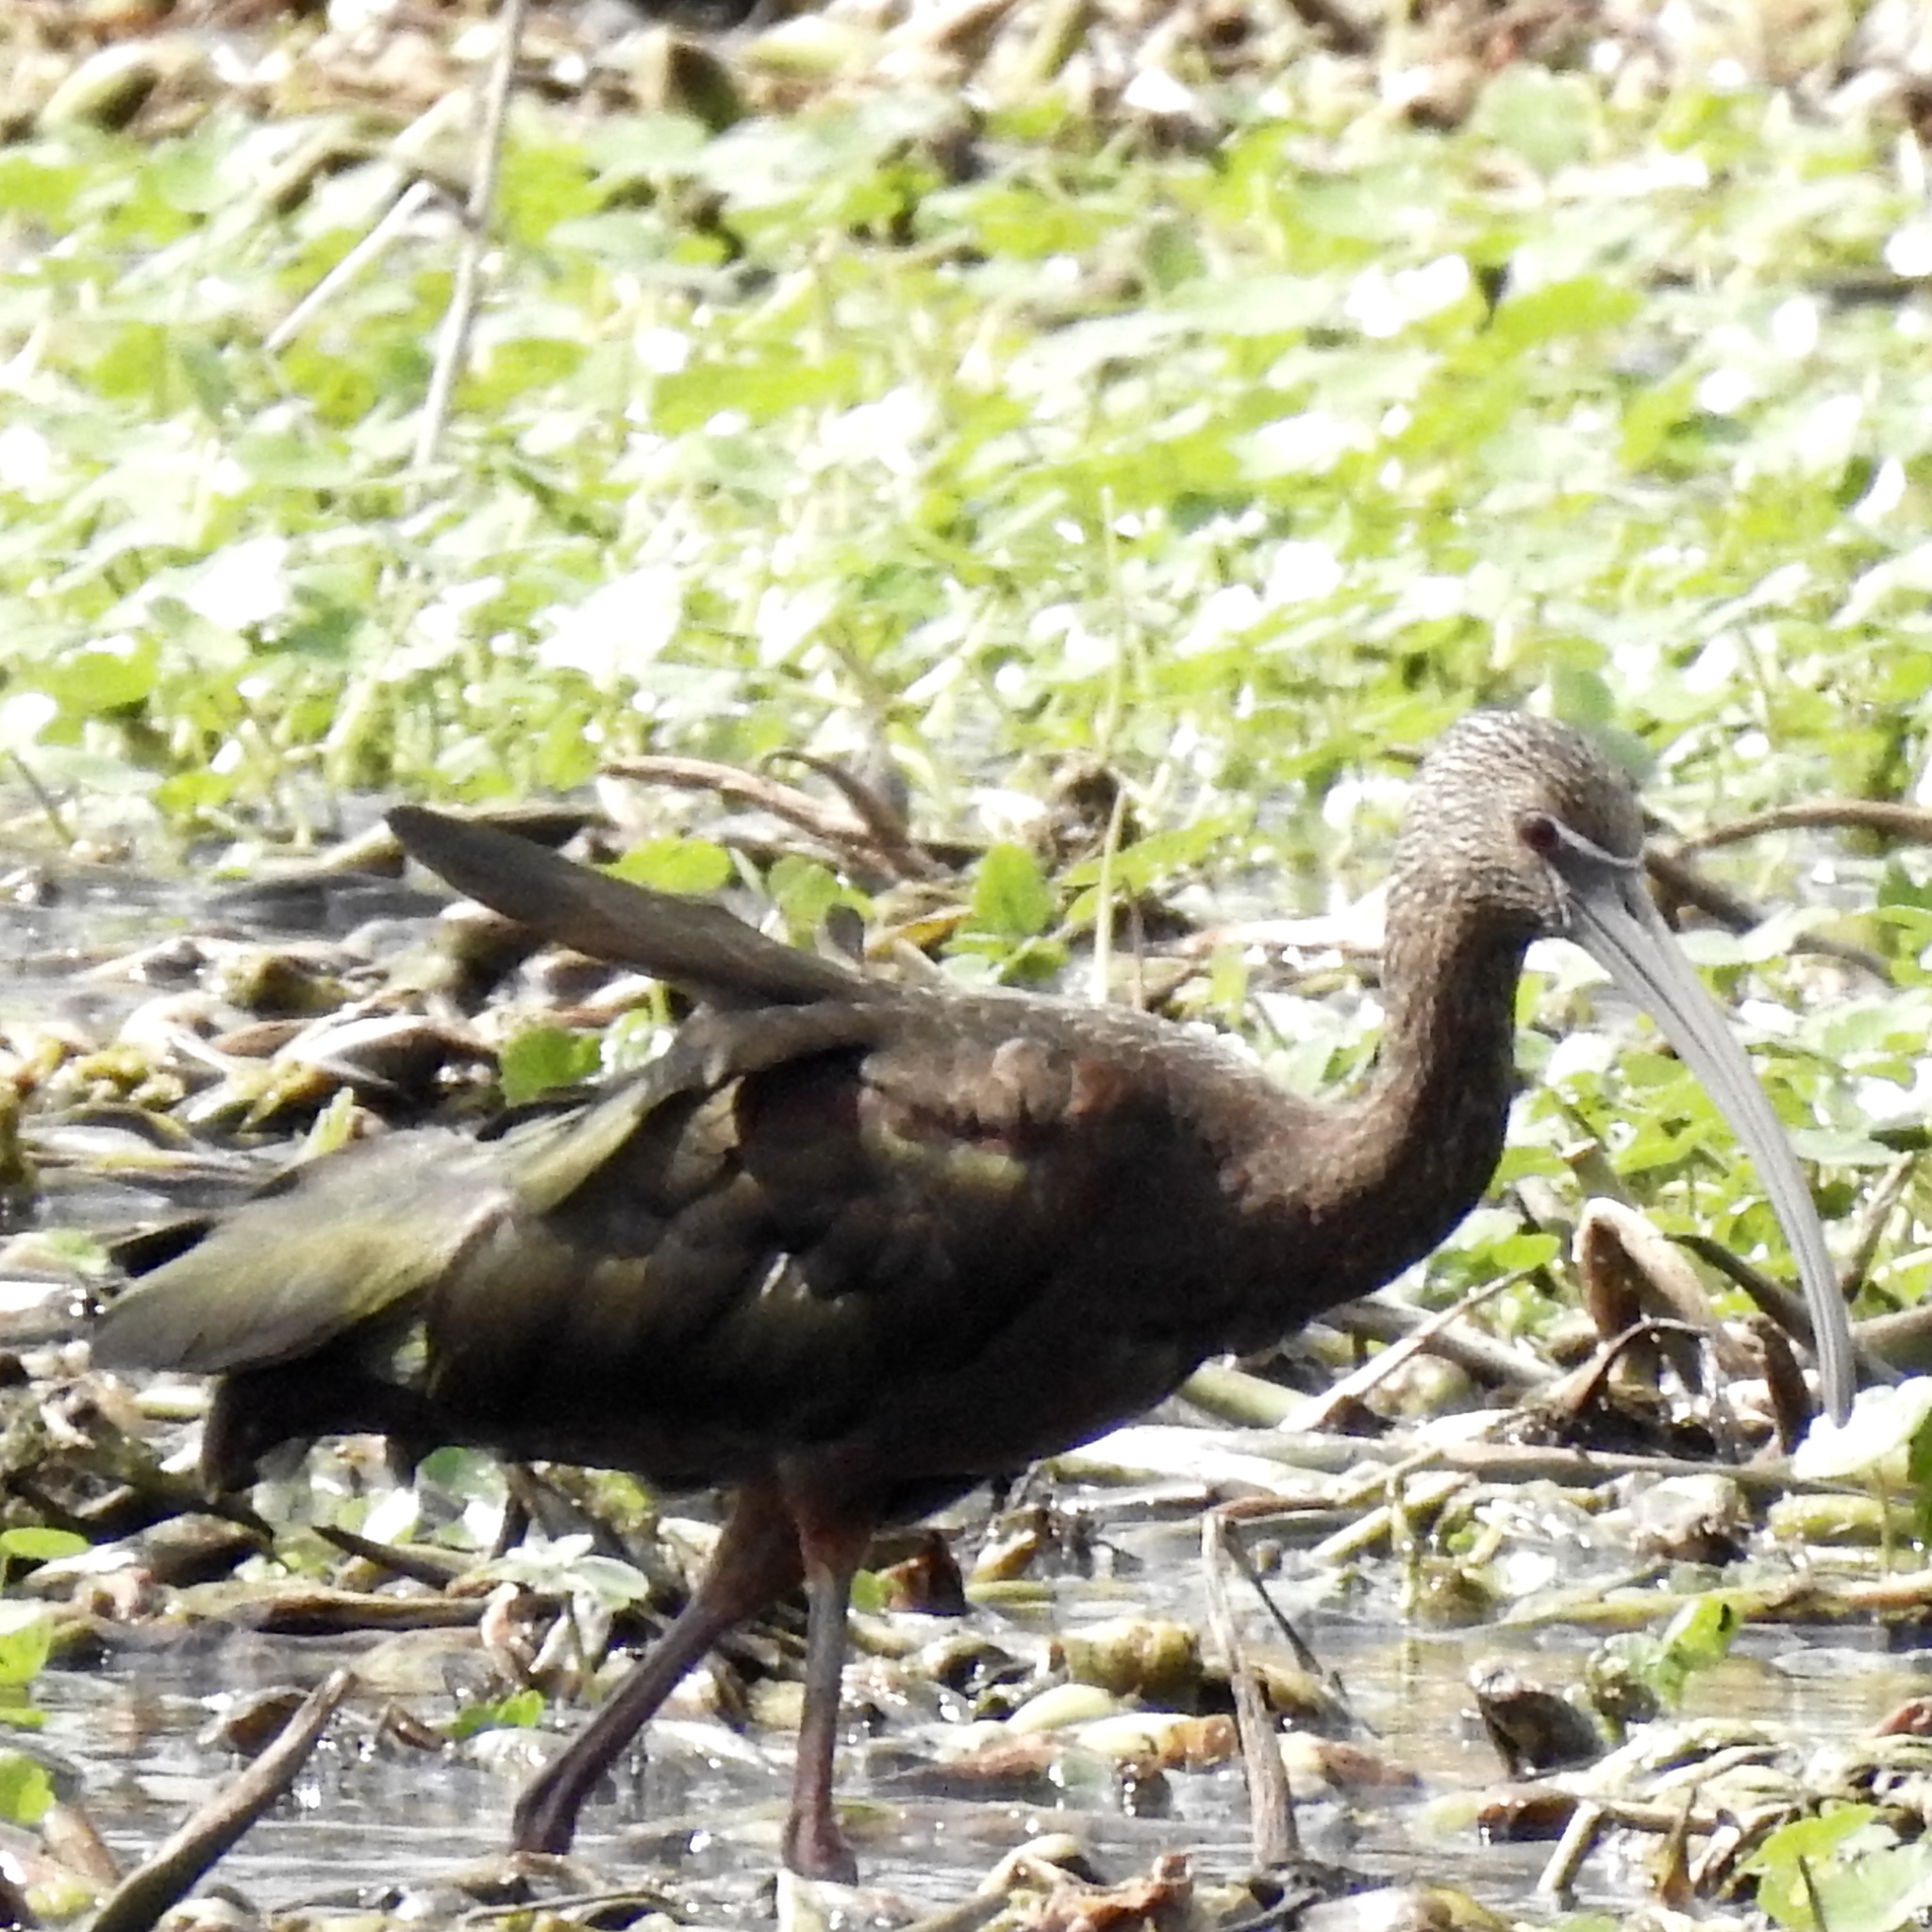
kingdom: Animalia
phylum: Chordata
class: Aves
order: Pelecaniformes
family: Threskiornithidae
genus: Plegadis
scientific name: Plegadis falcinellus
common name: Glossy ibis
